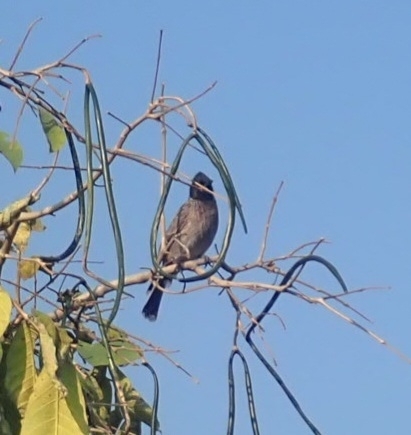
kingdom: Animalia
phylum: Chordata
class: Aves
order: Passeriformes
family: Pycnonotidae
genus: Pycnonotus
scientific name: Pycnonotus cafer
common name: Red-vented bulbul
